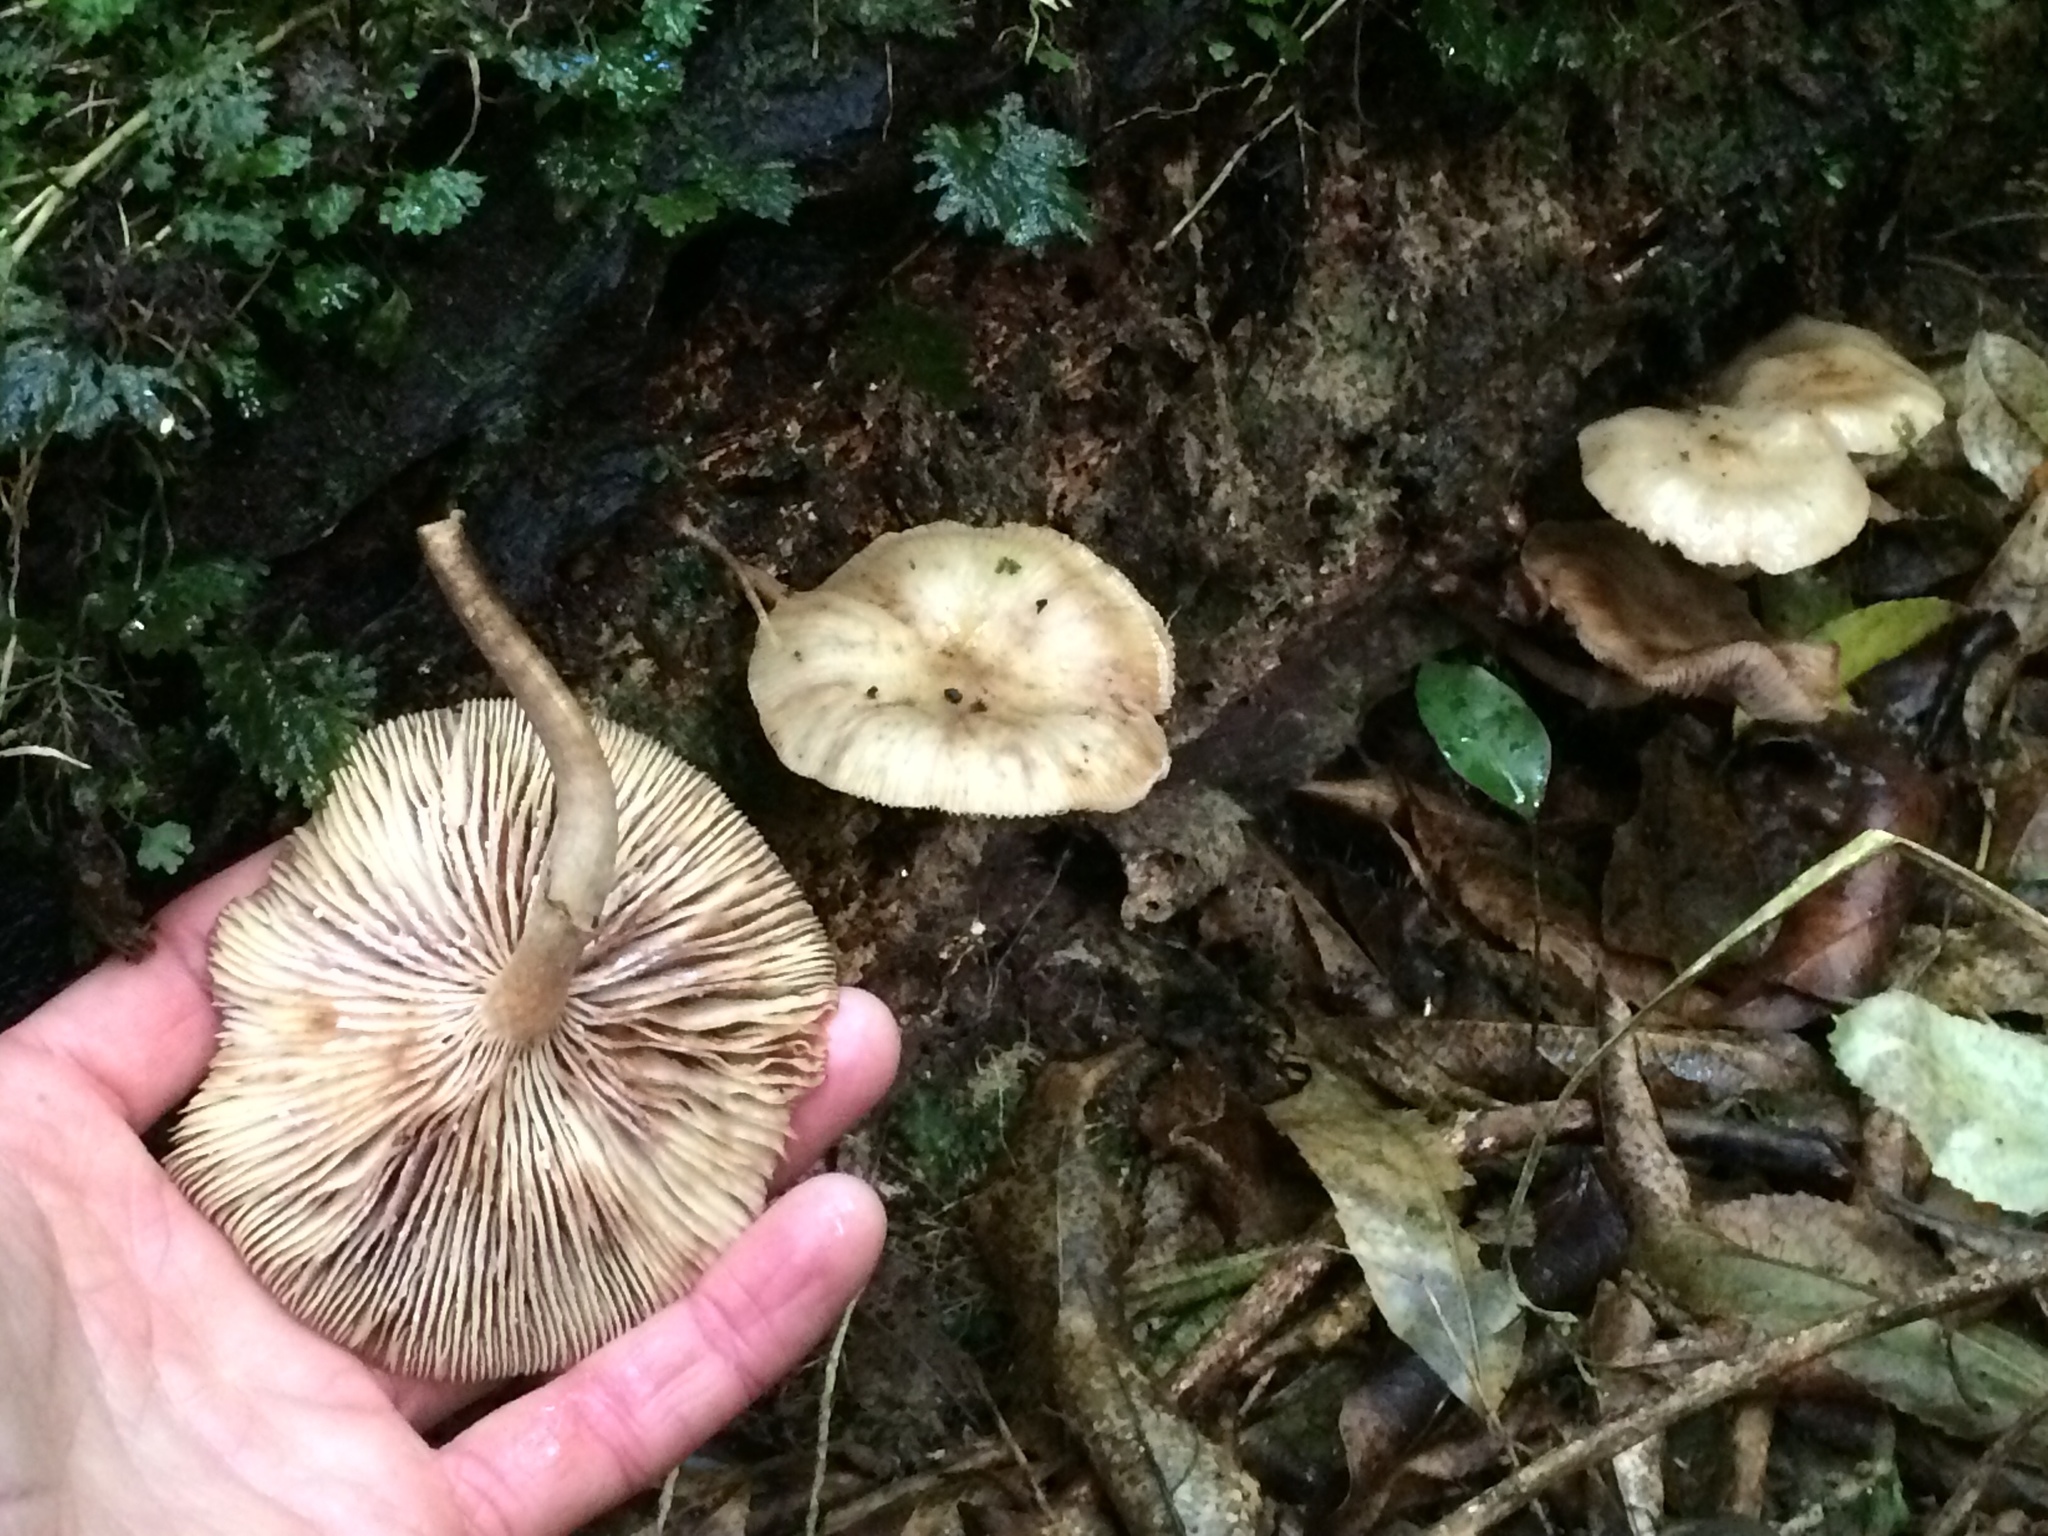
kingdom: Fungi
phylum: Basidiomycota
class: Agaricomycetes
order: Agaricales
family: Physalacriaceae
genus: Armillaria
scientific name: Armillaria novae-zelandiae
